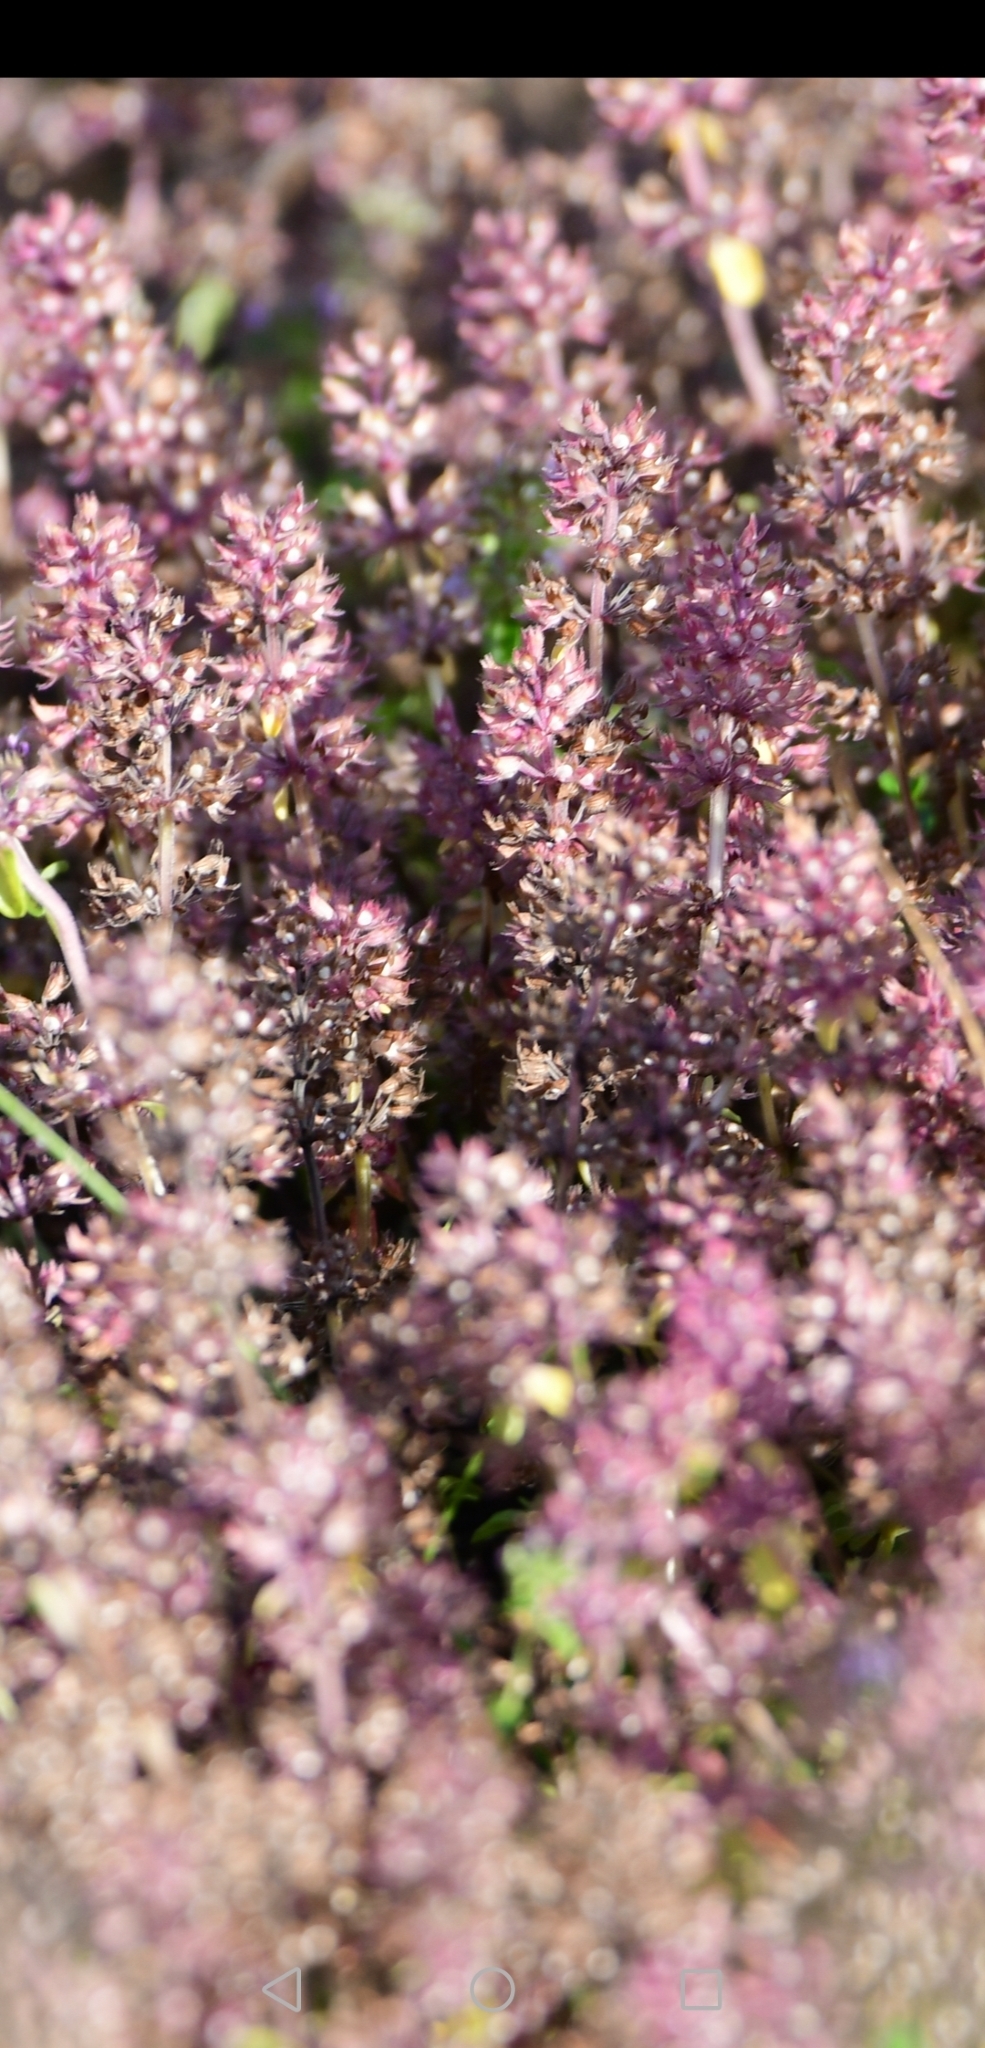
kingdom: Plantae
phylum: Tracheophyta
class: Magnoliopsida
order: Lamiales
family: Lamiaceae
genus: Thymus
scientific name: Thymus
